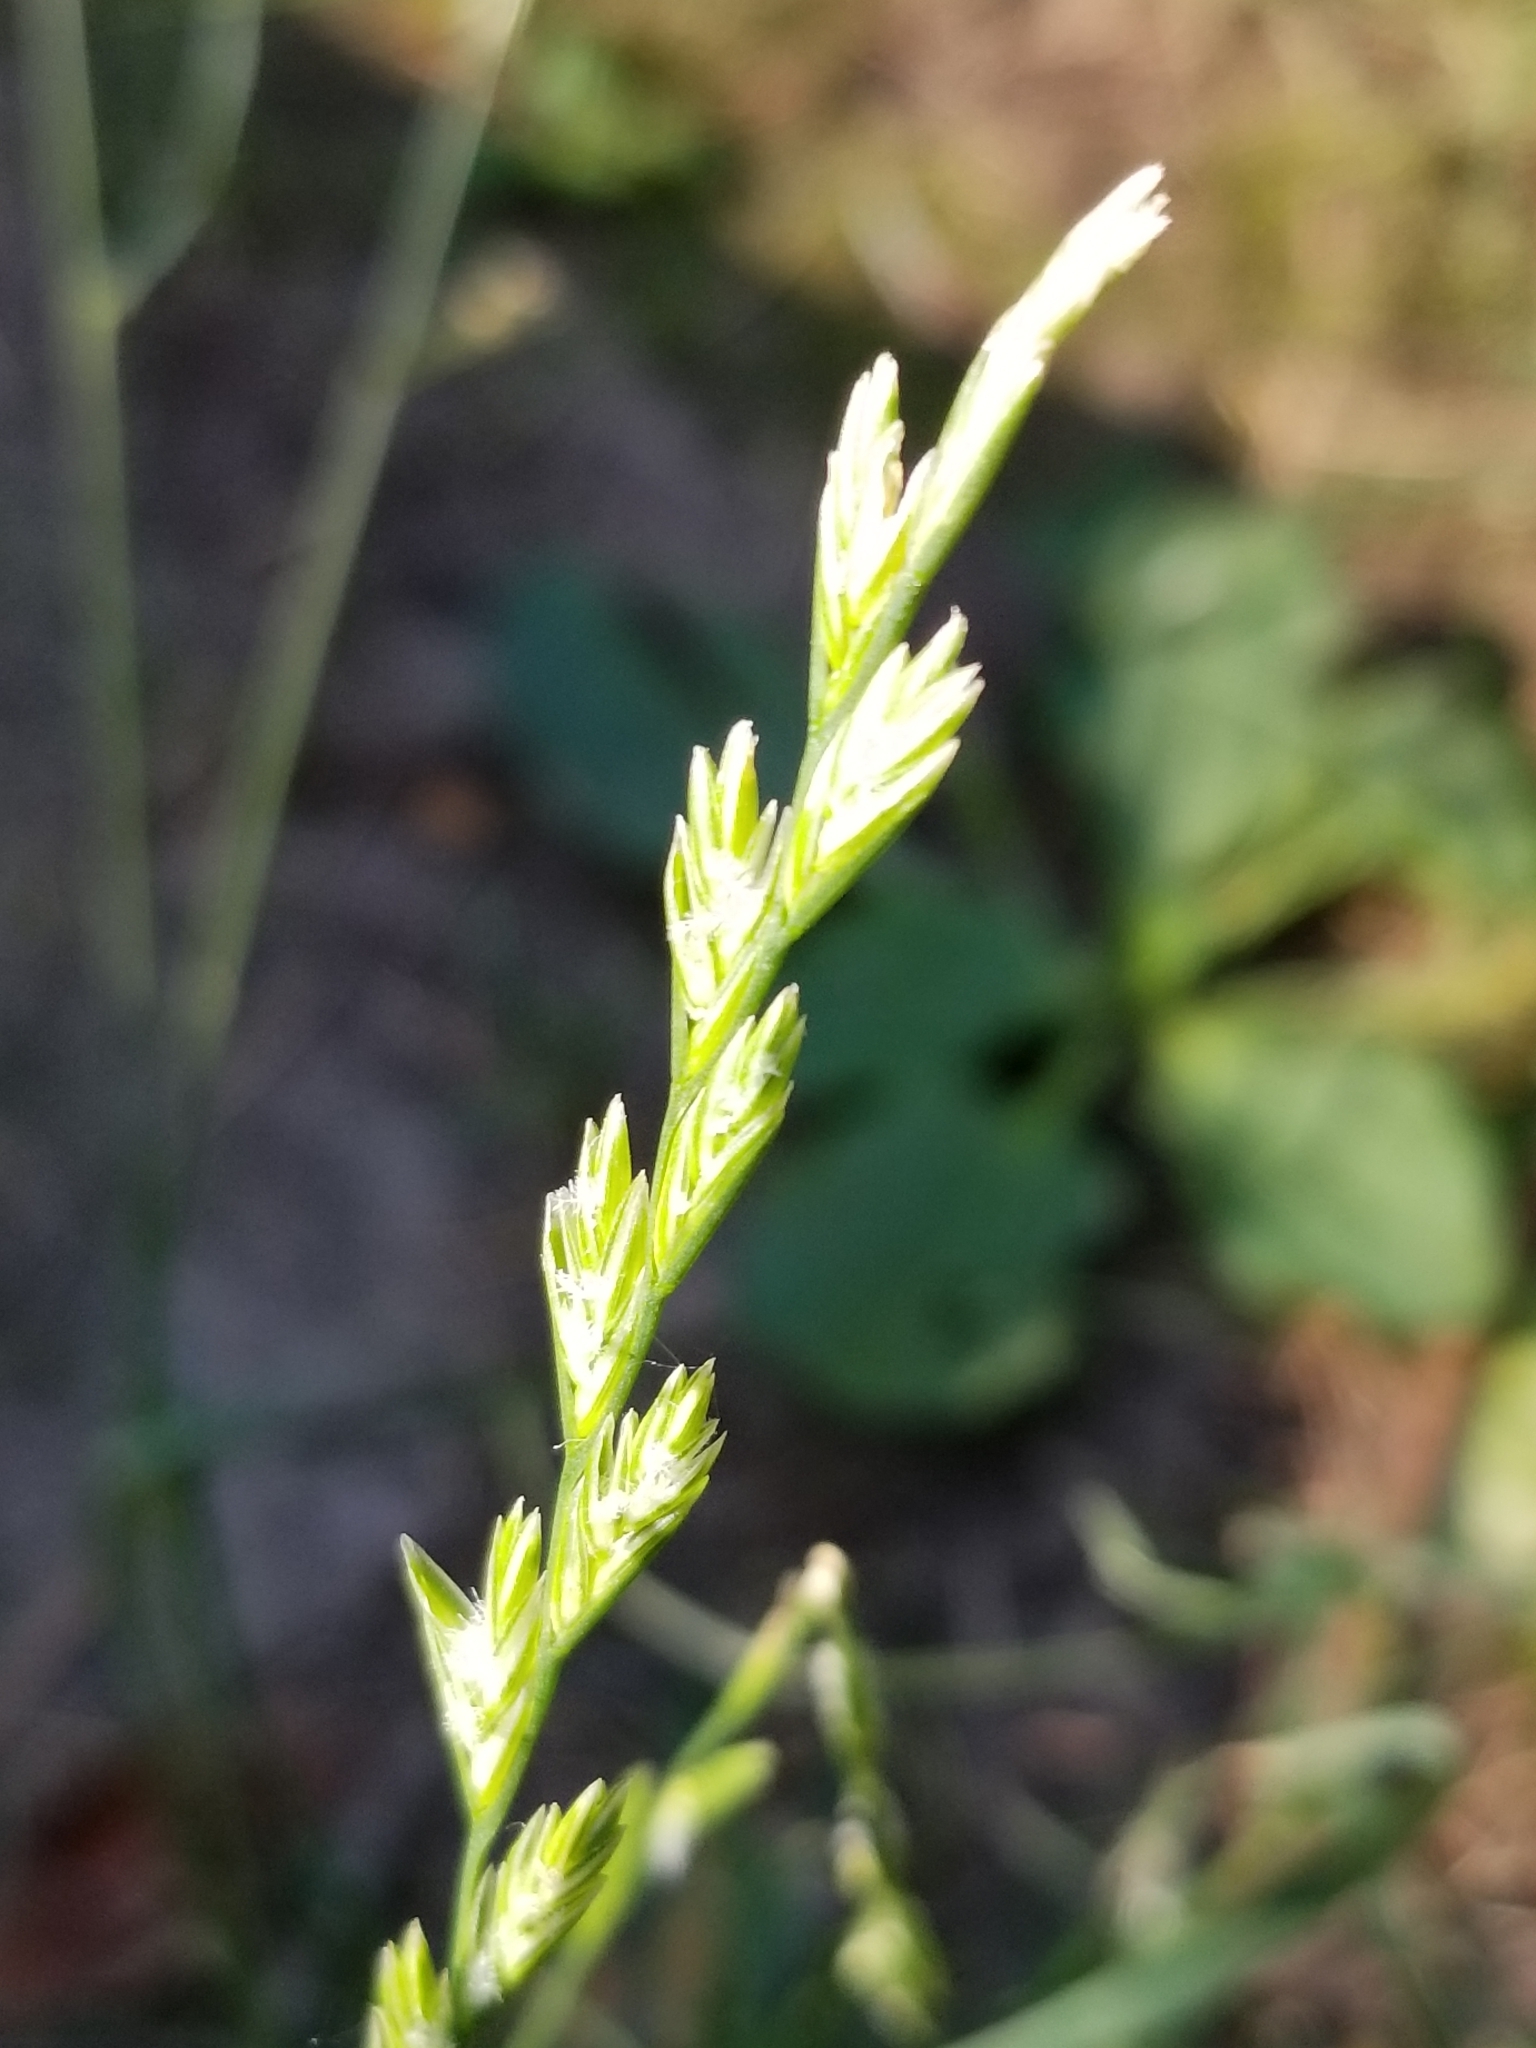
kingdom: Plantae
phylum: Tracheophyta
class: Liliopsida
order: Poales
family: Poaceae
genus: Lolium
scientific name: Lolium perenne
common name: Perennial ryegrass
